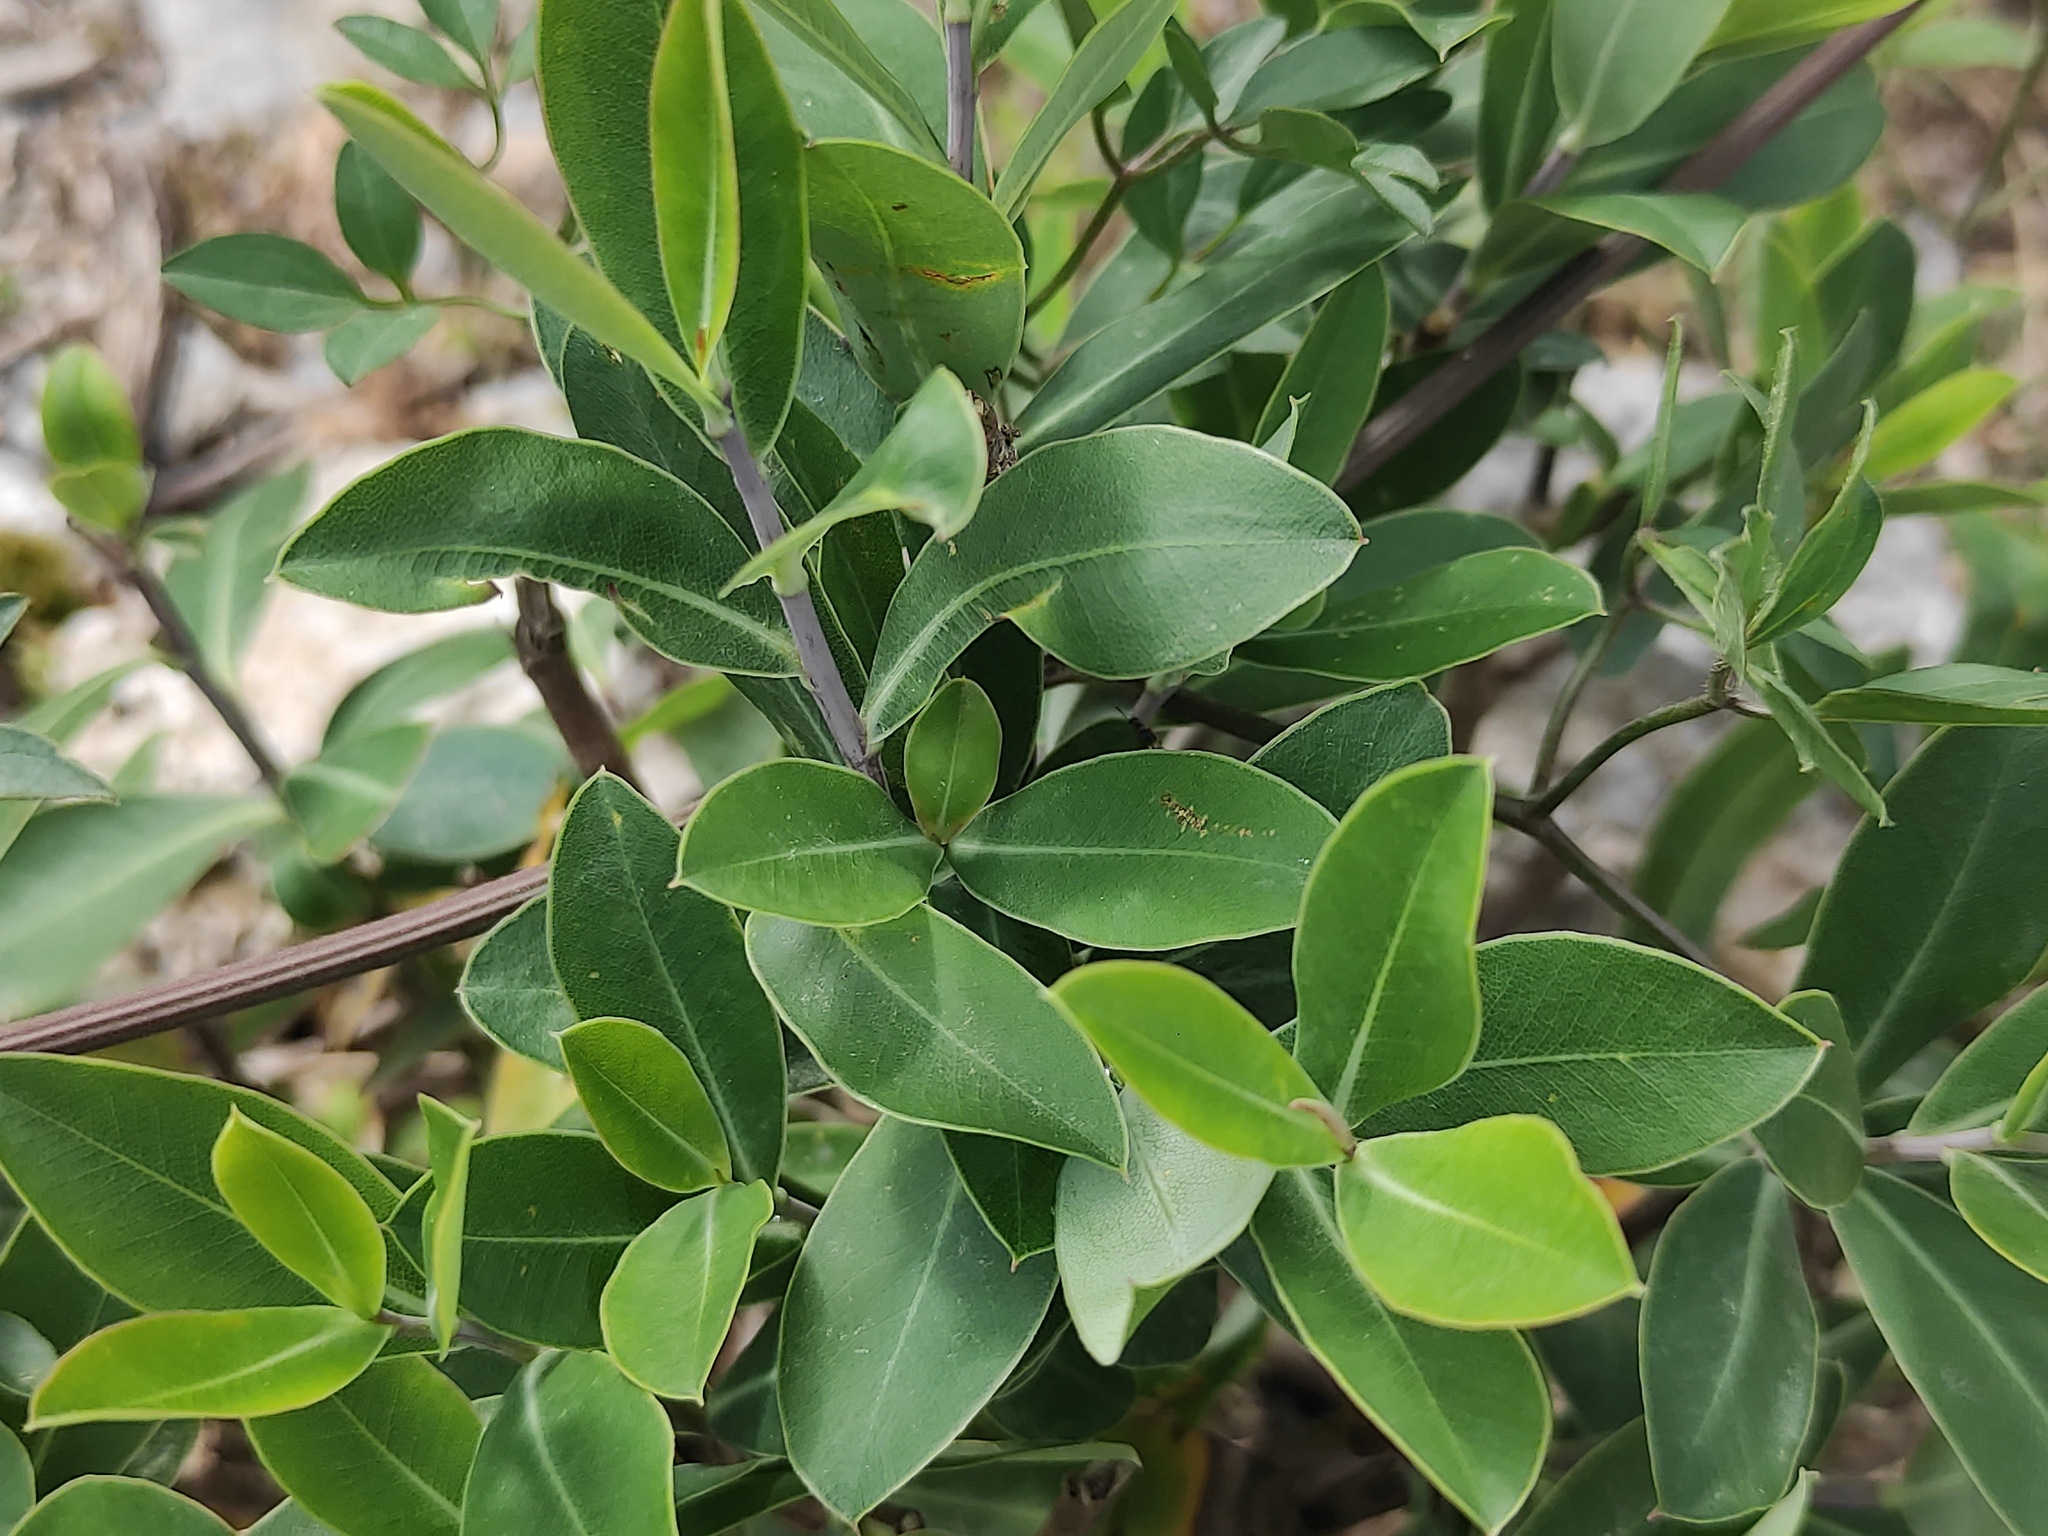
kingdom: Plantae
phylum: Tracheophyta
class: Magnoliopsida
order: Apiales
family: Apiaceae
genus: Bupleurum
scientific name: Bupleurum fruticosum
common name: Shrubby hare's-ear
